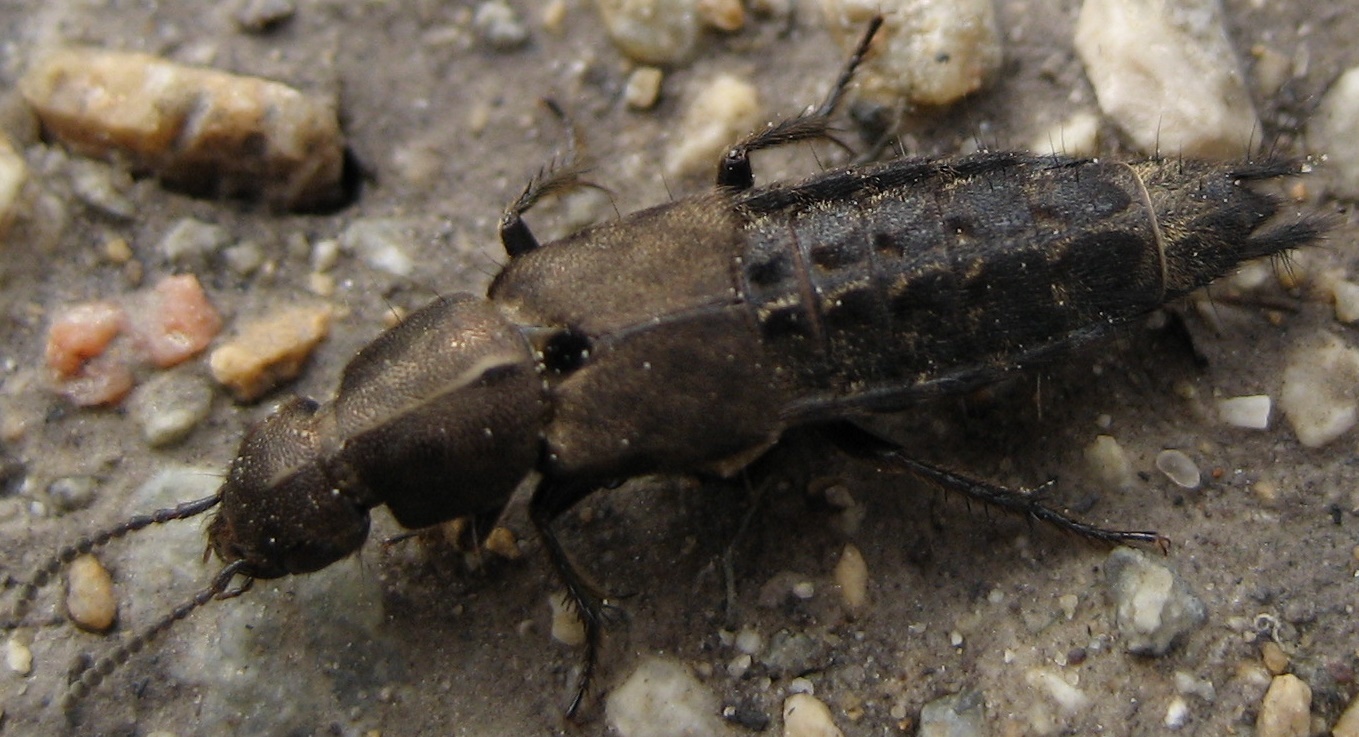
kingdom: Animalia
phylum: Arthropoda
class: Insecta
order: Coleoptera
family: Staphylinidae
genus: Platydracus
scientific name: Platydracus exulans
